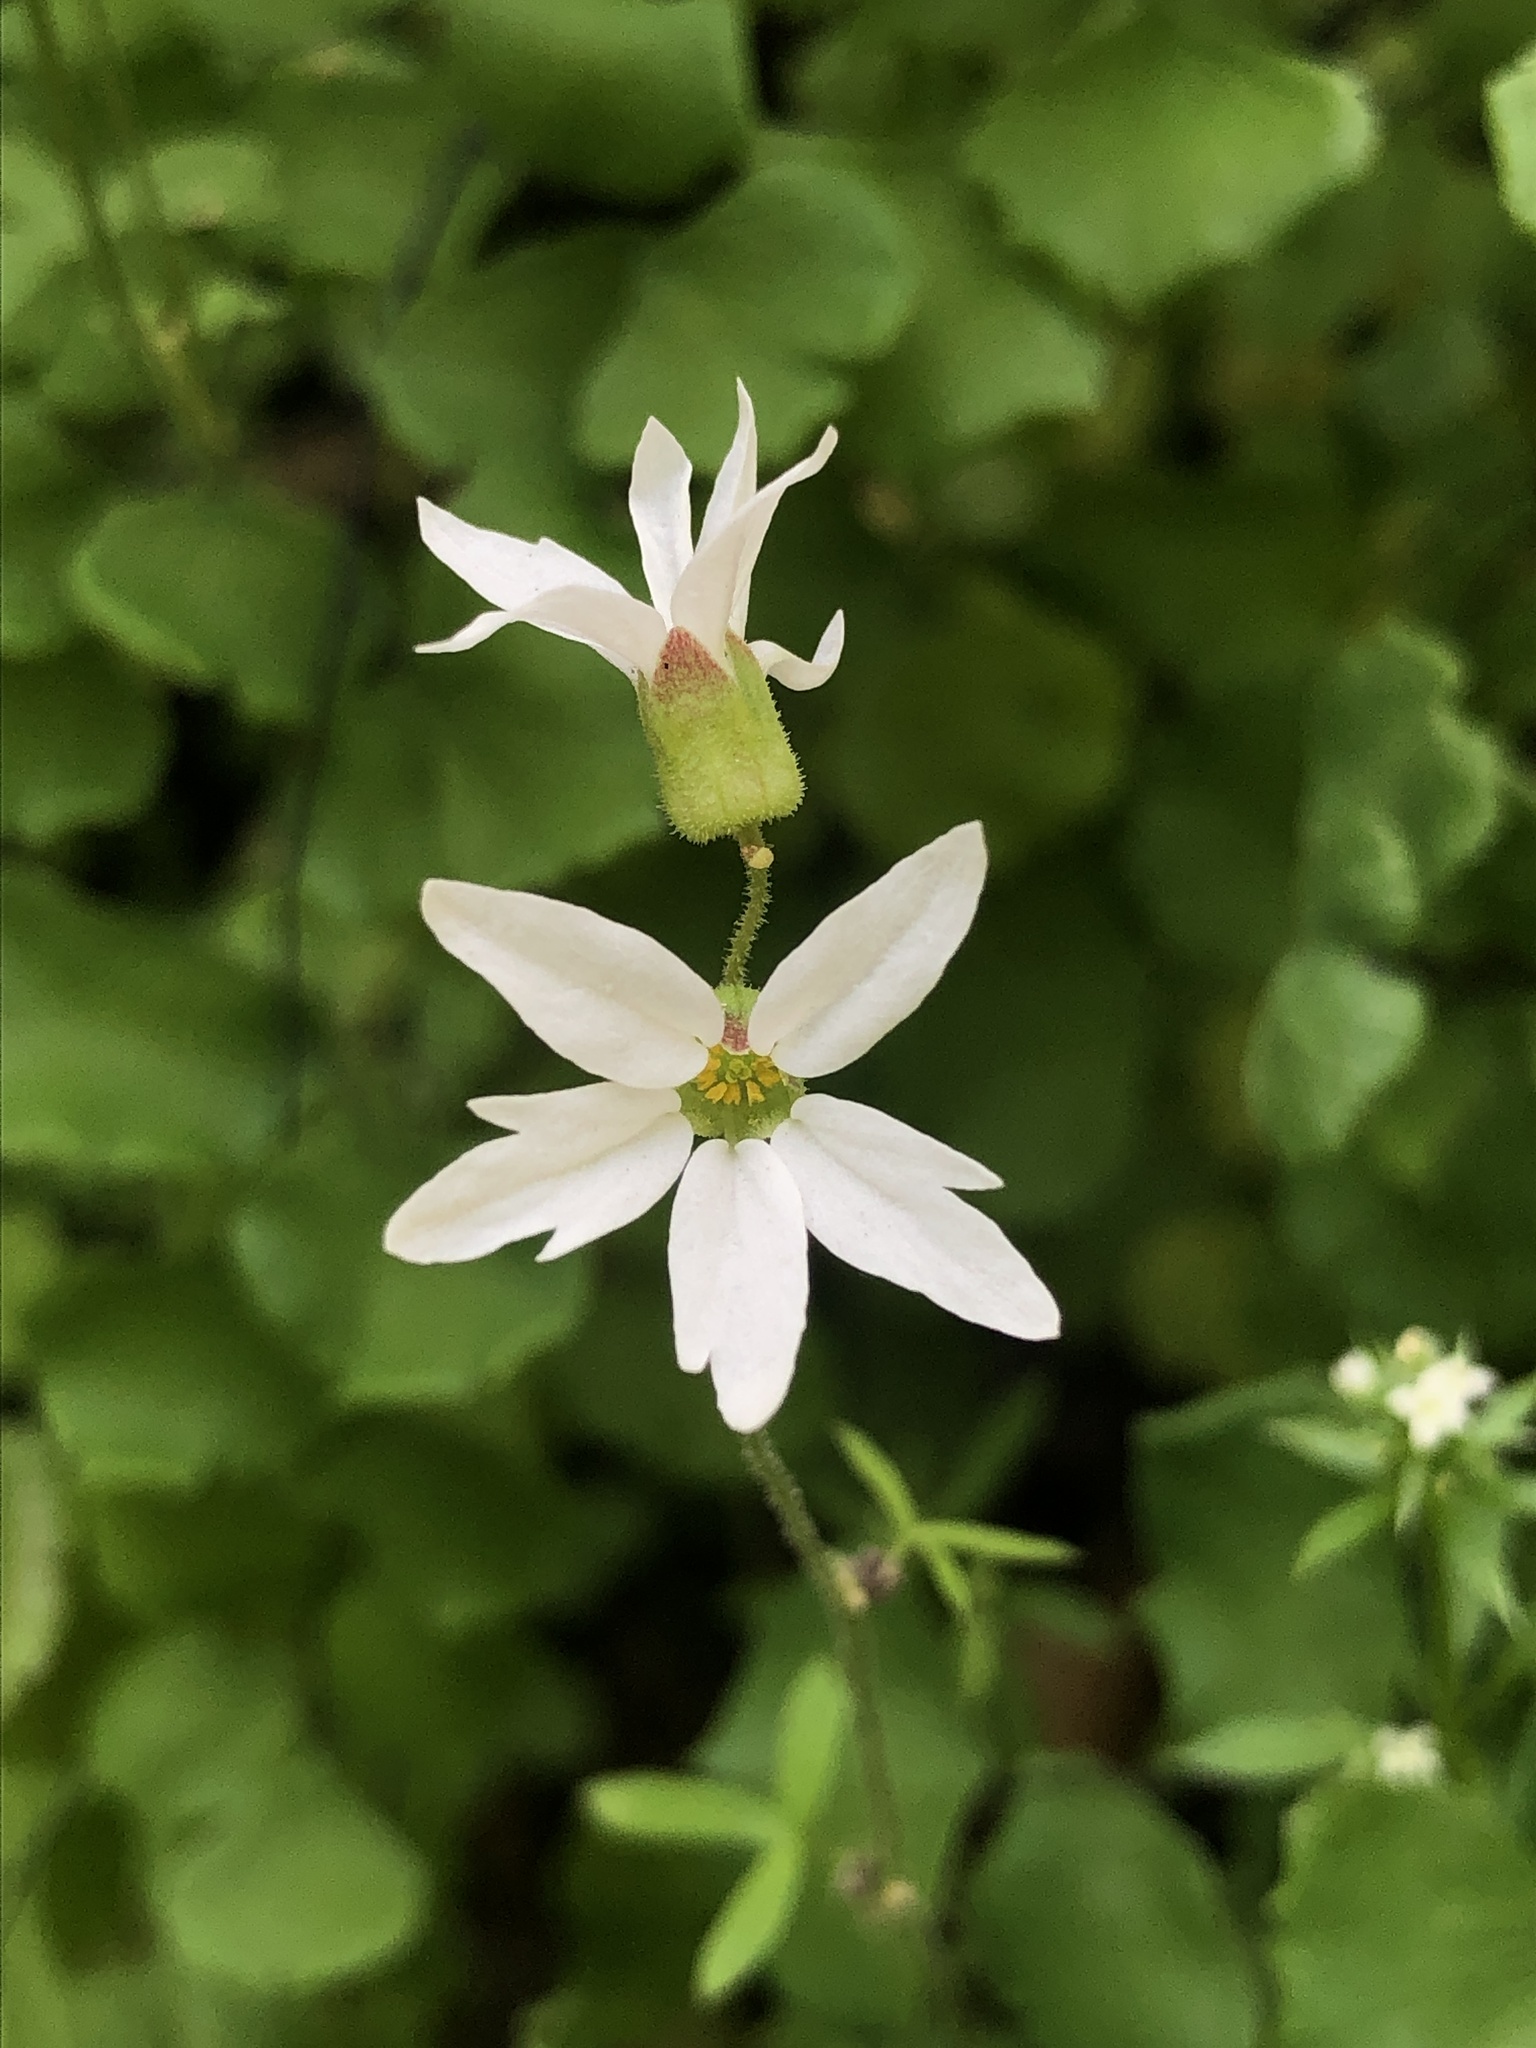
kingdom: Plantae
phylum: Tracheophyta
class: Magnoliopsida
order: Saxifragales
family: Saxifragaceae
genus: Lithophragma
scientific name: Lithophragma heterophyllum
